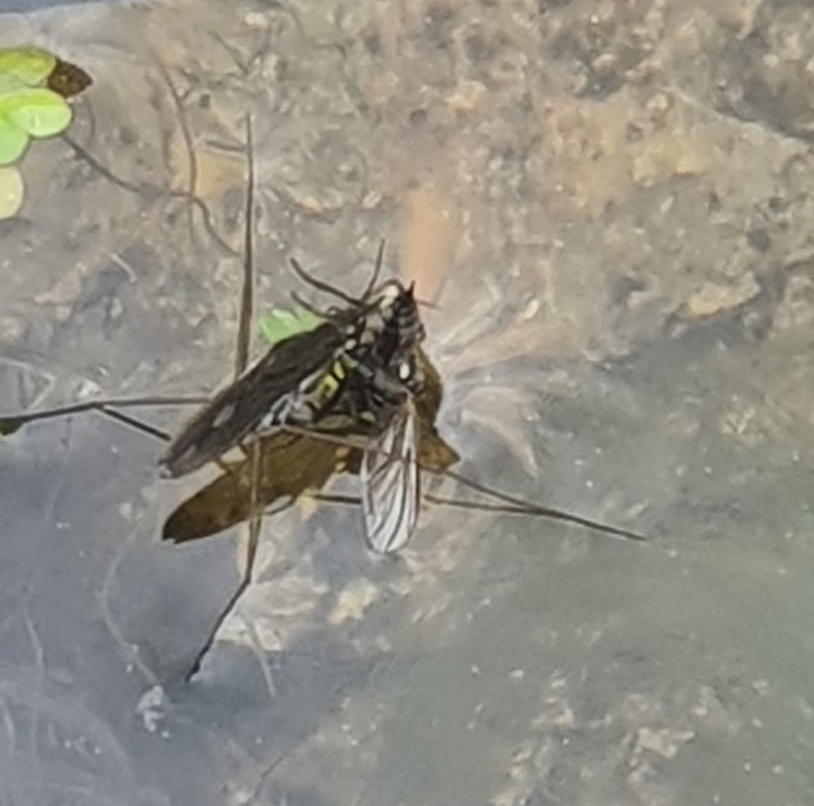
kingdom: Animalia
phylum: Arthropoda
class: Insecta
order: Hemiptera
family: Gerridae
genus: Gerris
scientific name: Gerris
